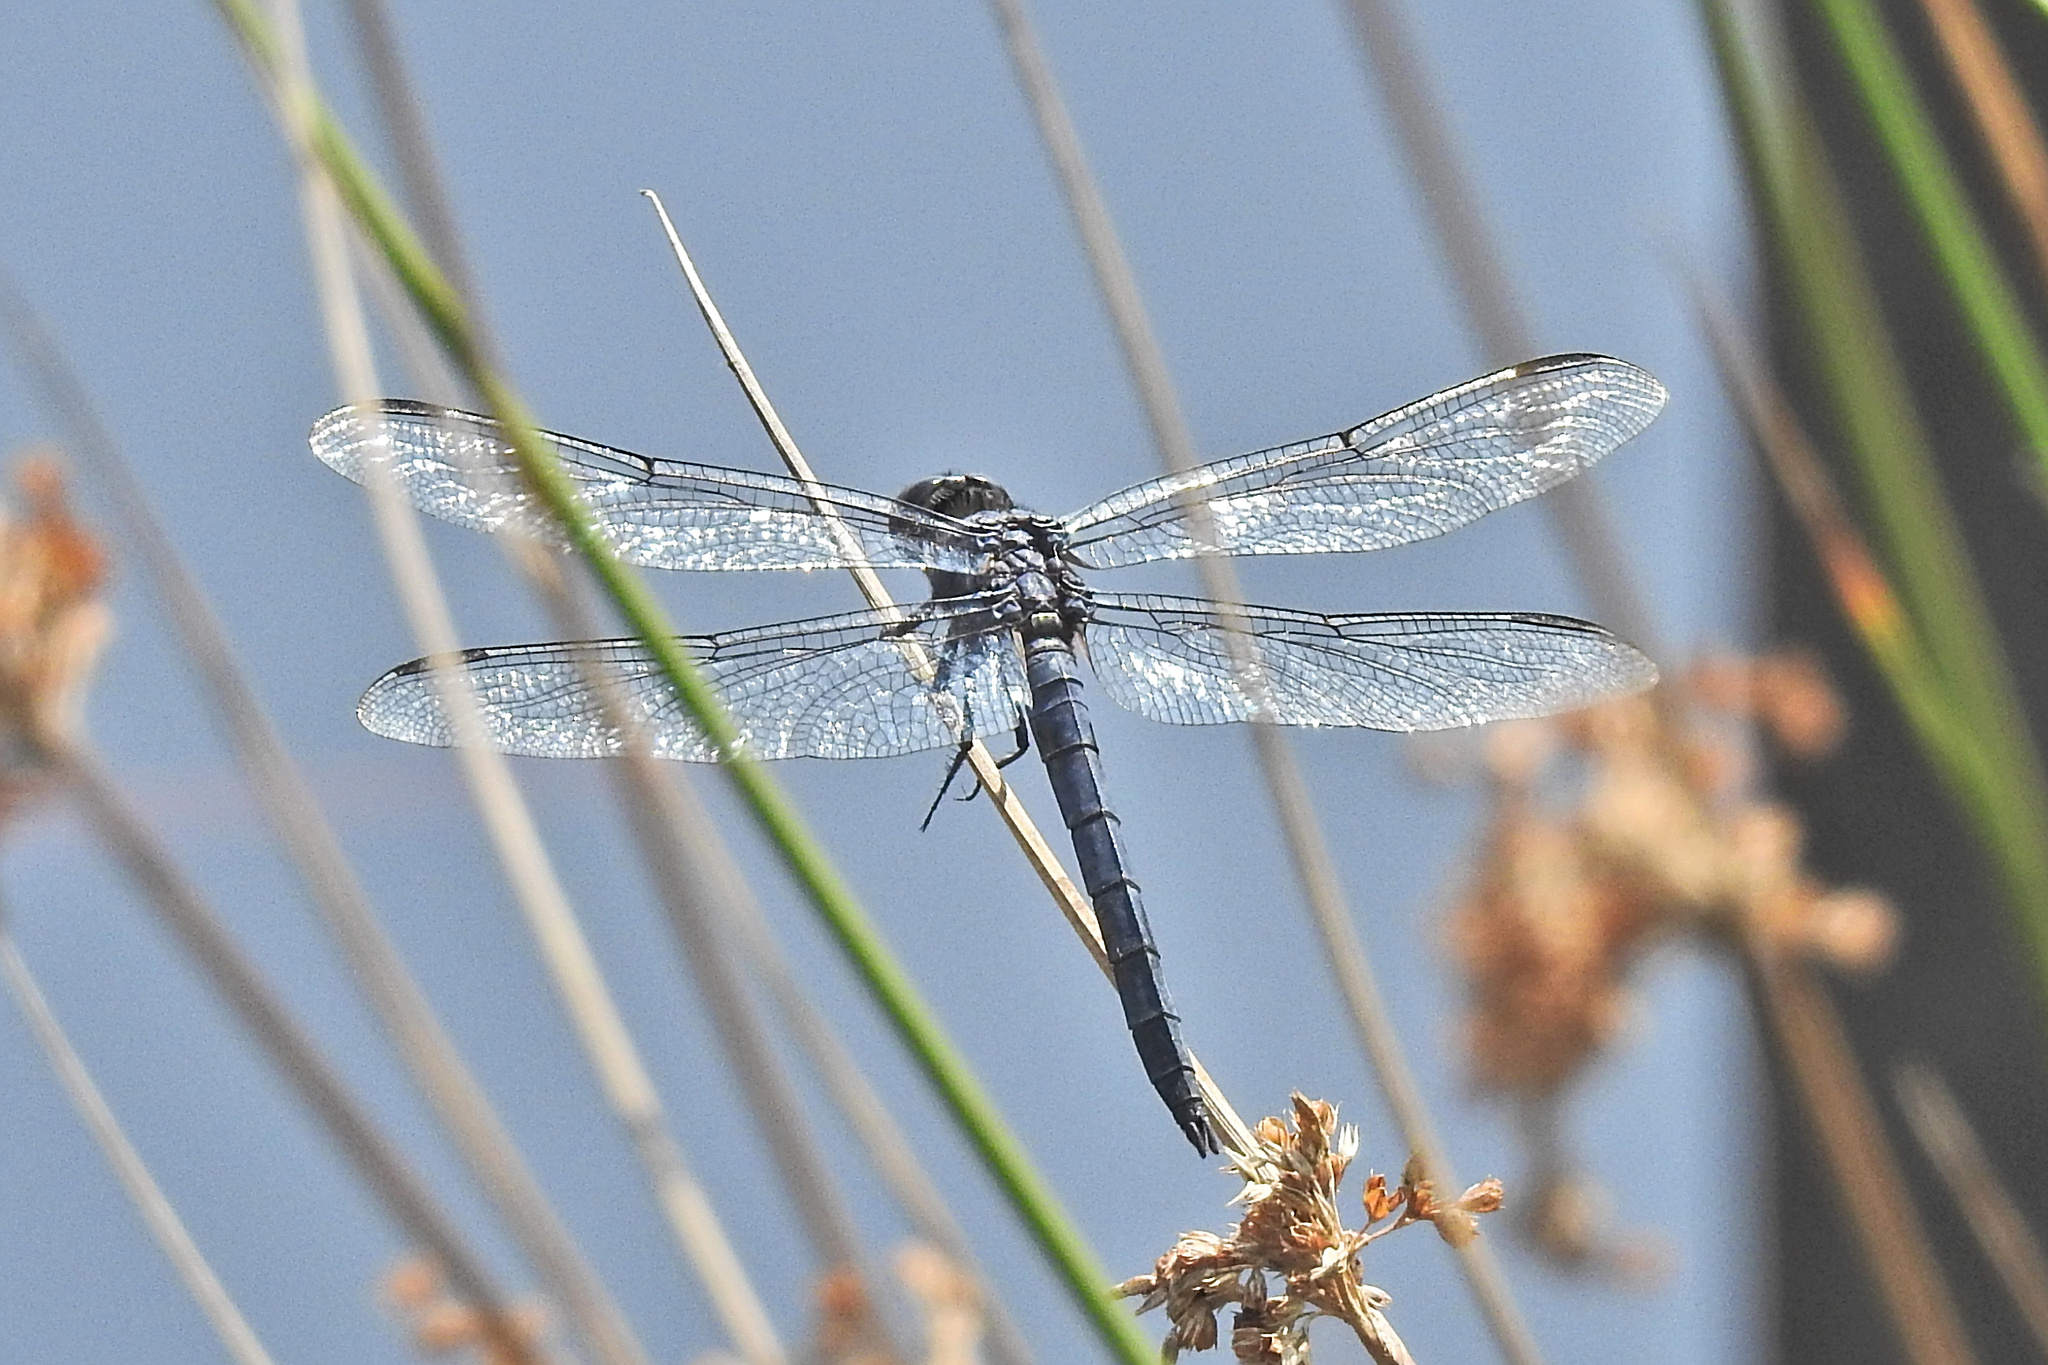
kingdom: Animalia
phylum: Arthropoda
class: Insecta
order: Odonata
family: Libellulidae
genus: Libellula
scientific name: Libellula incesta
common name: Slaty skimmer
